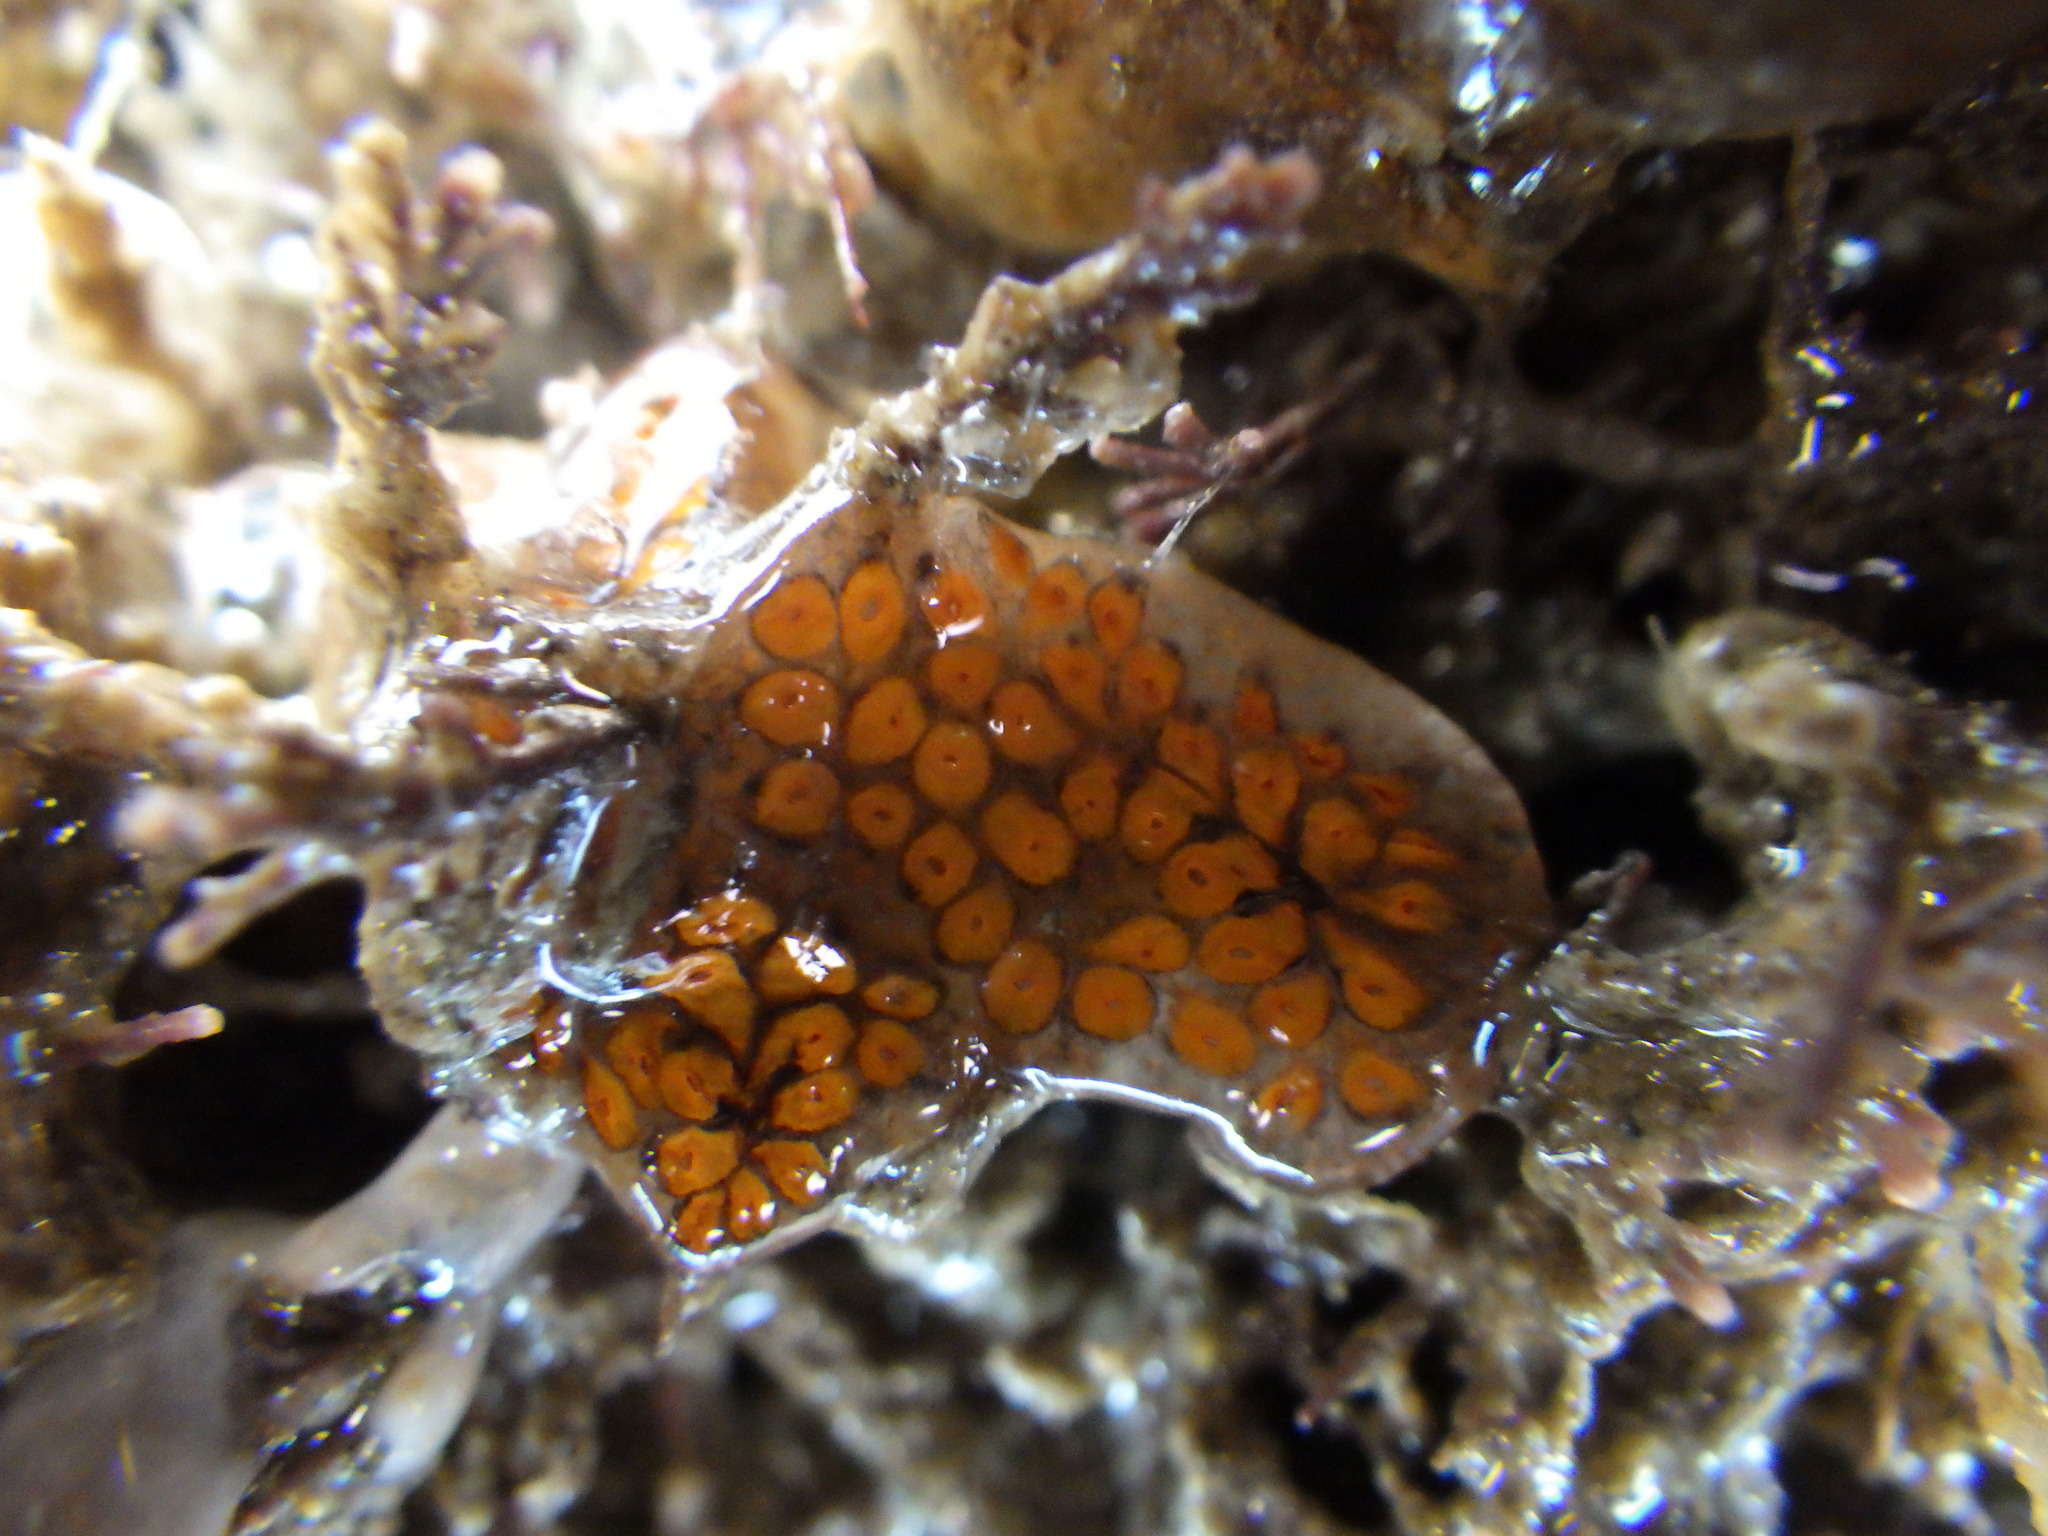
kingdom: Animalia
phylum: Chordata
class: Ascidiacea
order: Stolidobranchia
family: Styelidae
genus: Botrylloides
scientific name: Botrylloides diegensis
